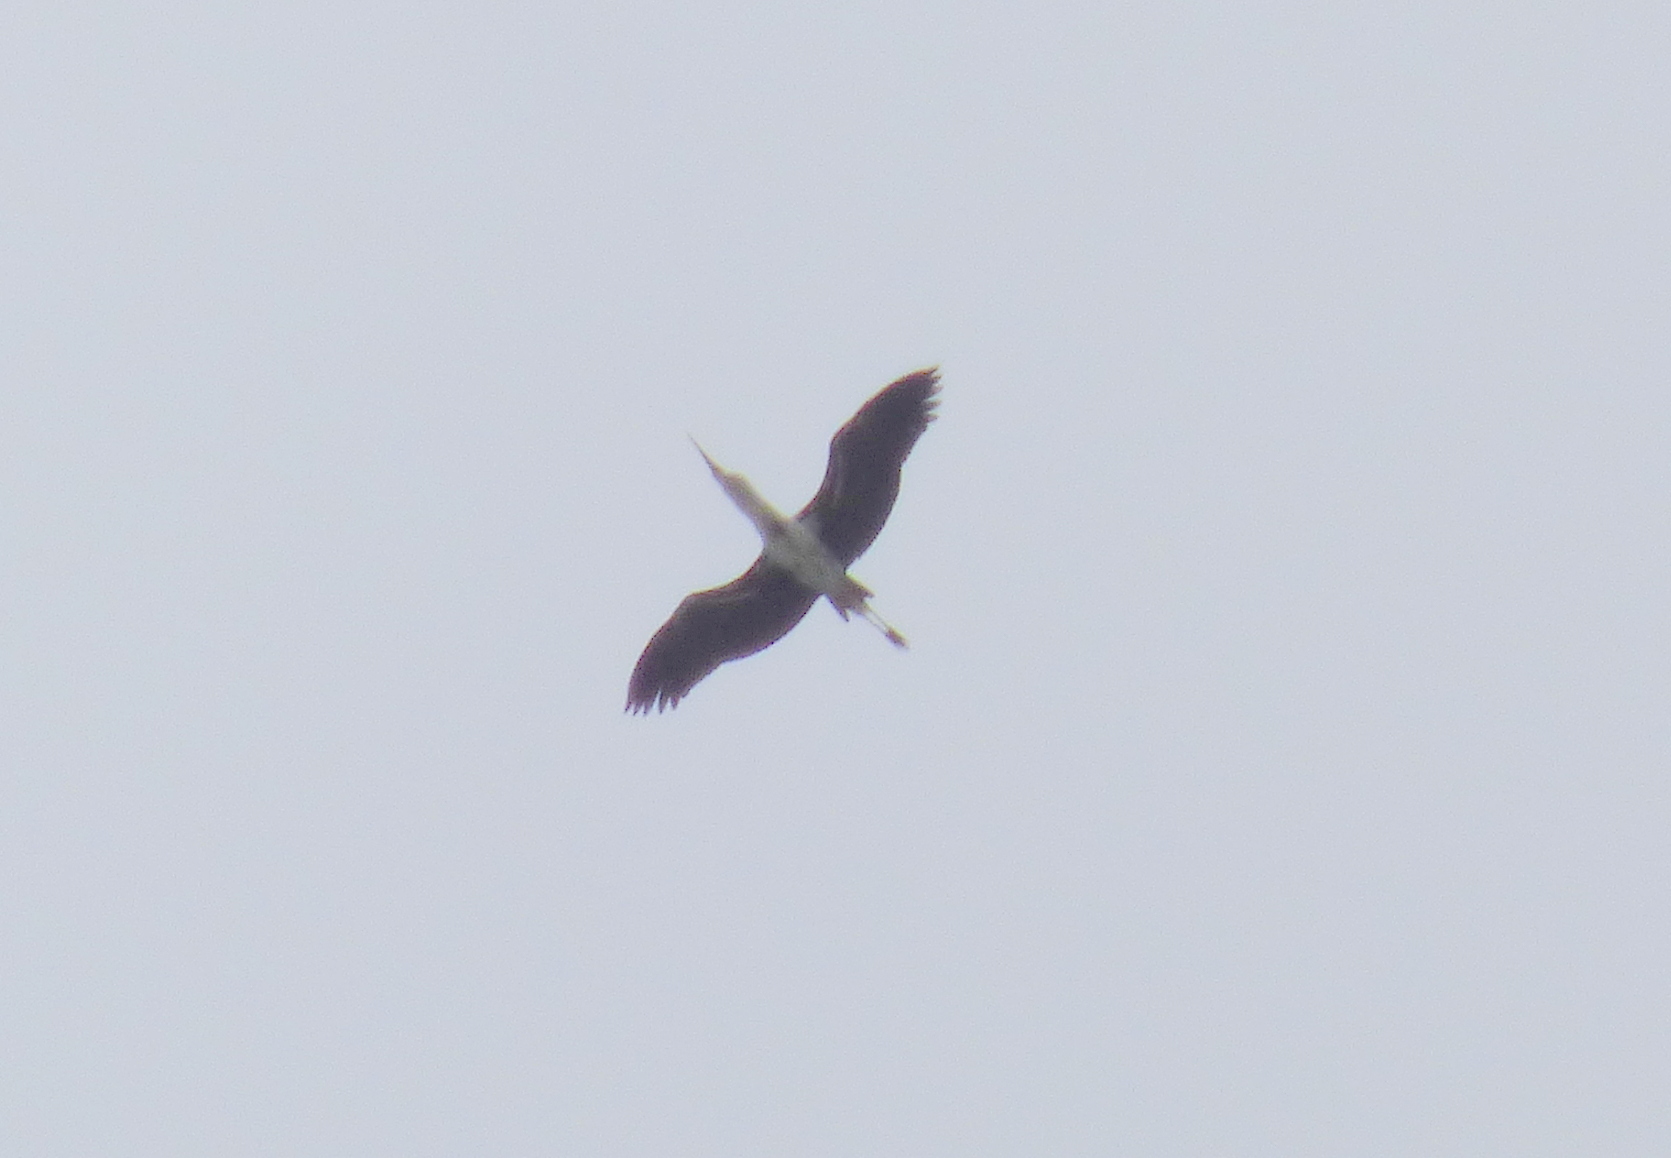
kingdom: Animalia
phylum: Chordata
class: Aves
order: Ciconiiformes
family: Ciconiidae
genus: Ciconia
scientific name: Ciconia maguari
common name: Maguari stork
